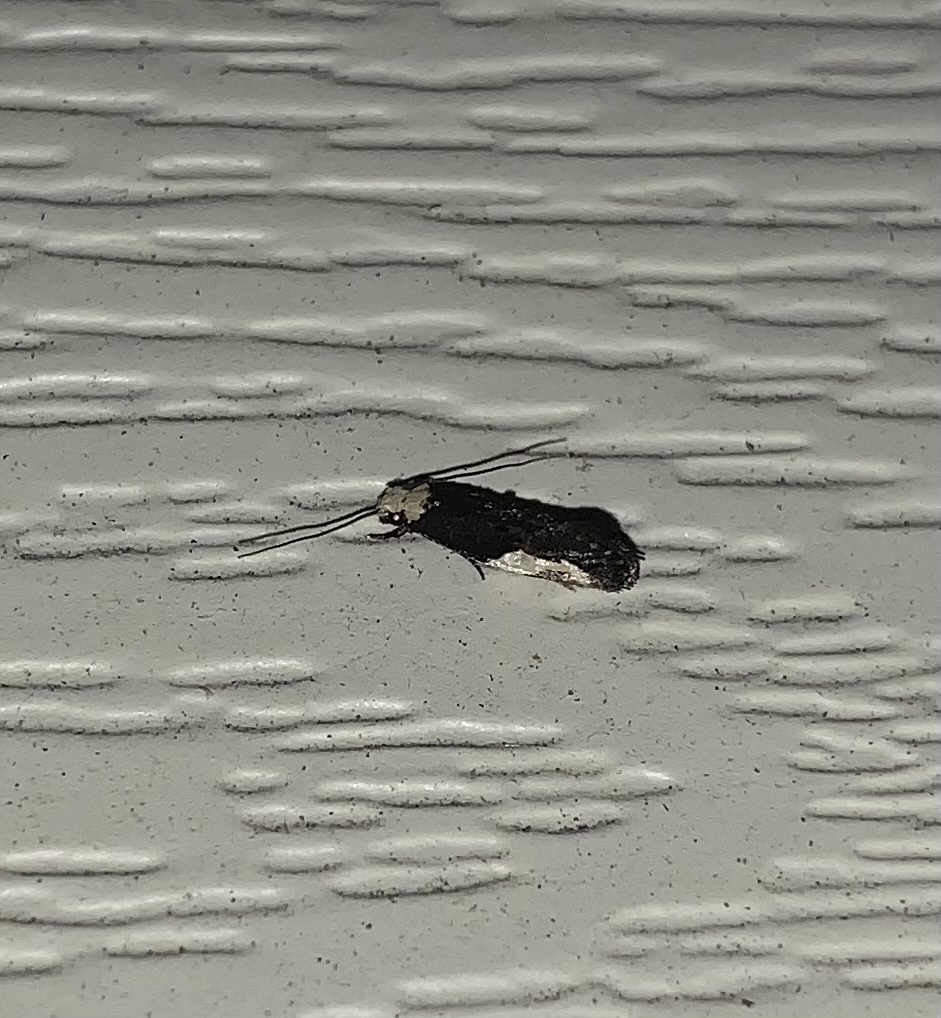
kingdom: Animalia
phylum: Arthropoda
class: Insecta
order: Lepidoptera
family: Tineidae
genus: Monopis
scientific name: Monopis longella
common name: Pavlovski's monopis moth
